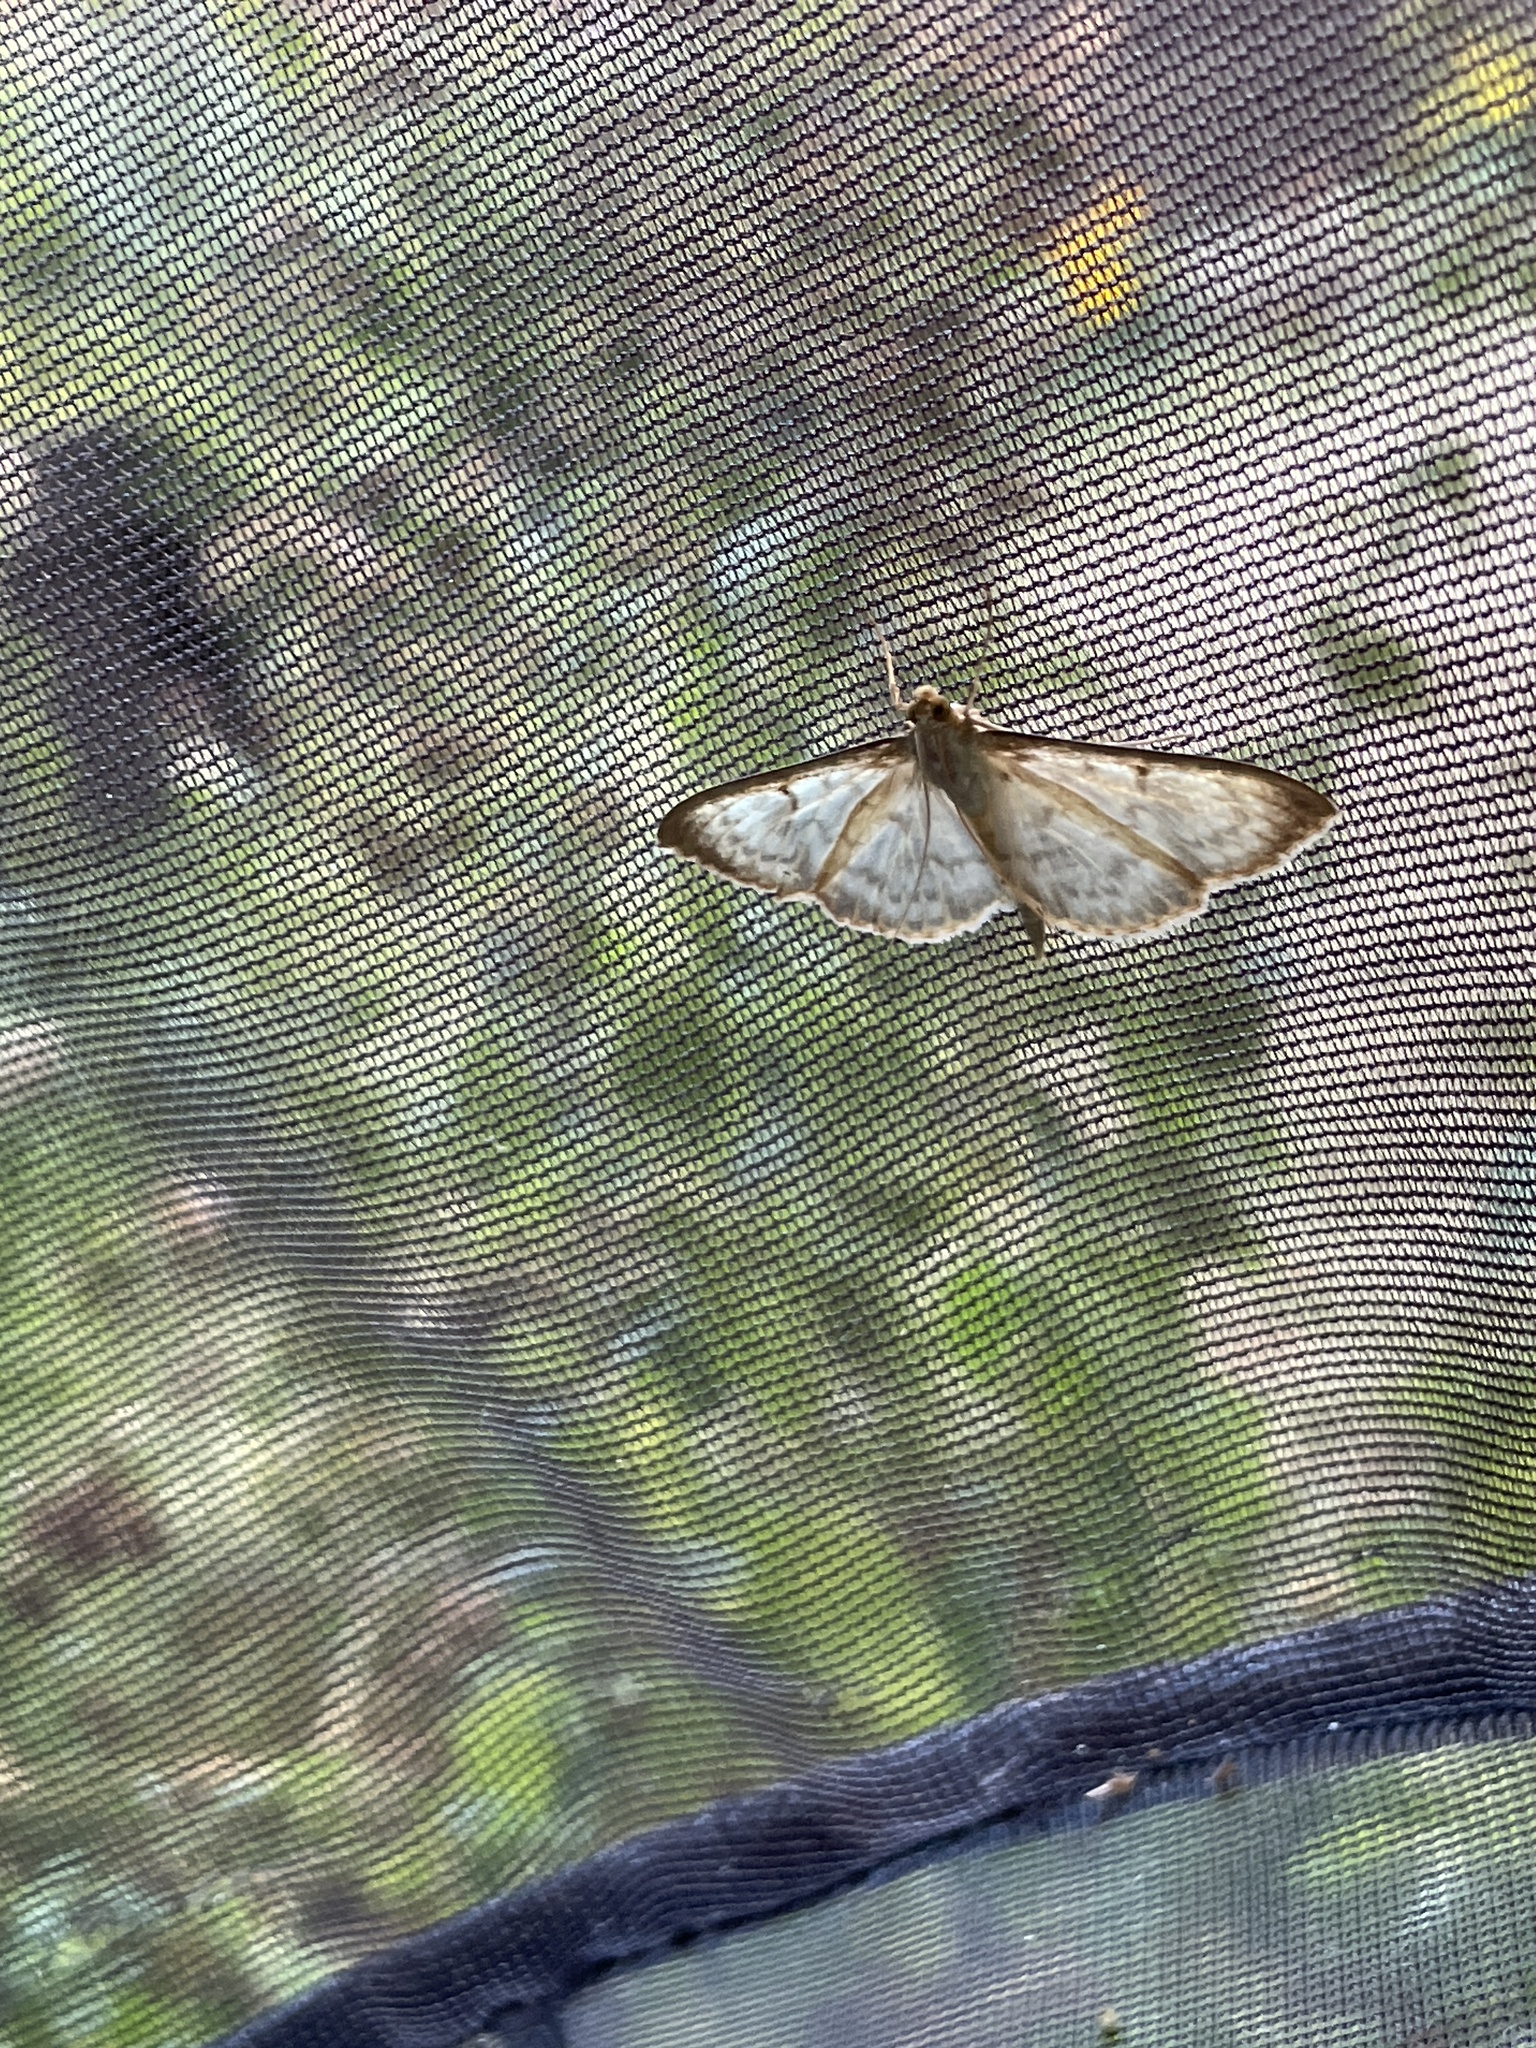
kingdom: Animalia
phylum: Arthropoda
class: Insecta
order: Lepidoptera
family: Crambidae
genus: Patania
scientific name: Patania ruralis
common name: Mother of pearl
